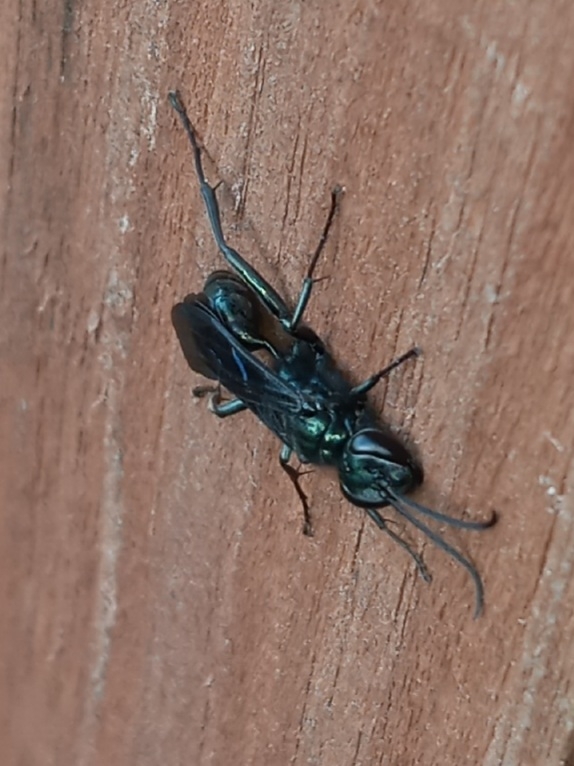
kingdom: Animalia
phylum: Arthropoda
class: Insecta
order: Hymenoptera
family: Sphecidae
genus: Chalybion
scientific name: Chalybion californicum
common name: Mud dauber
